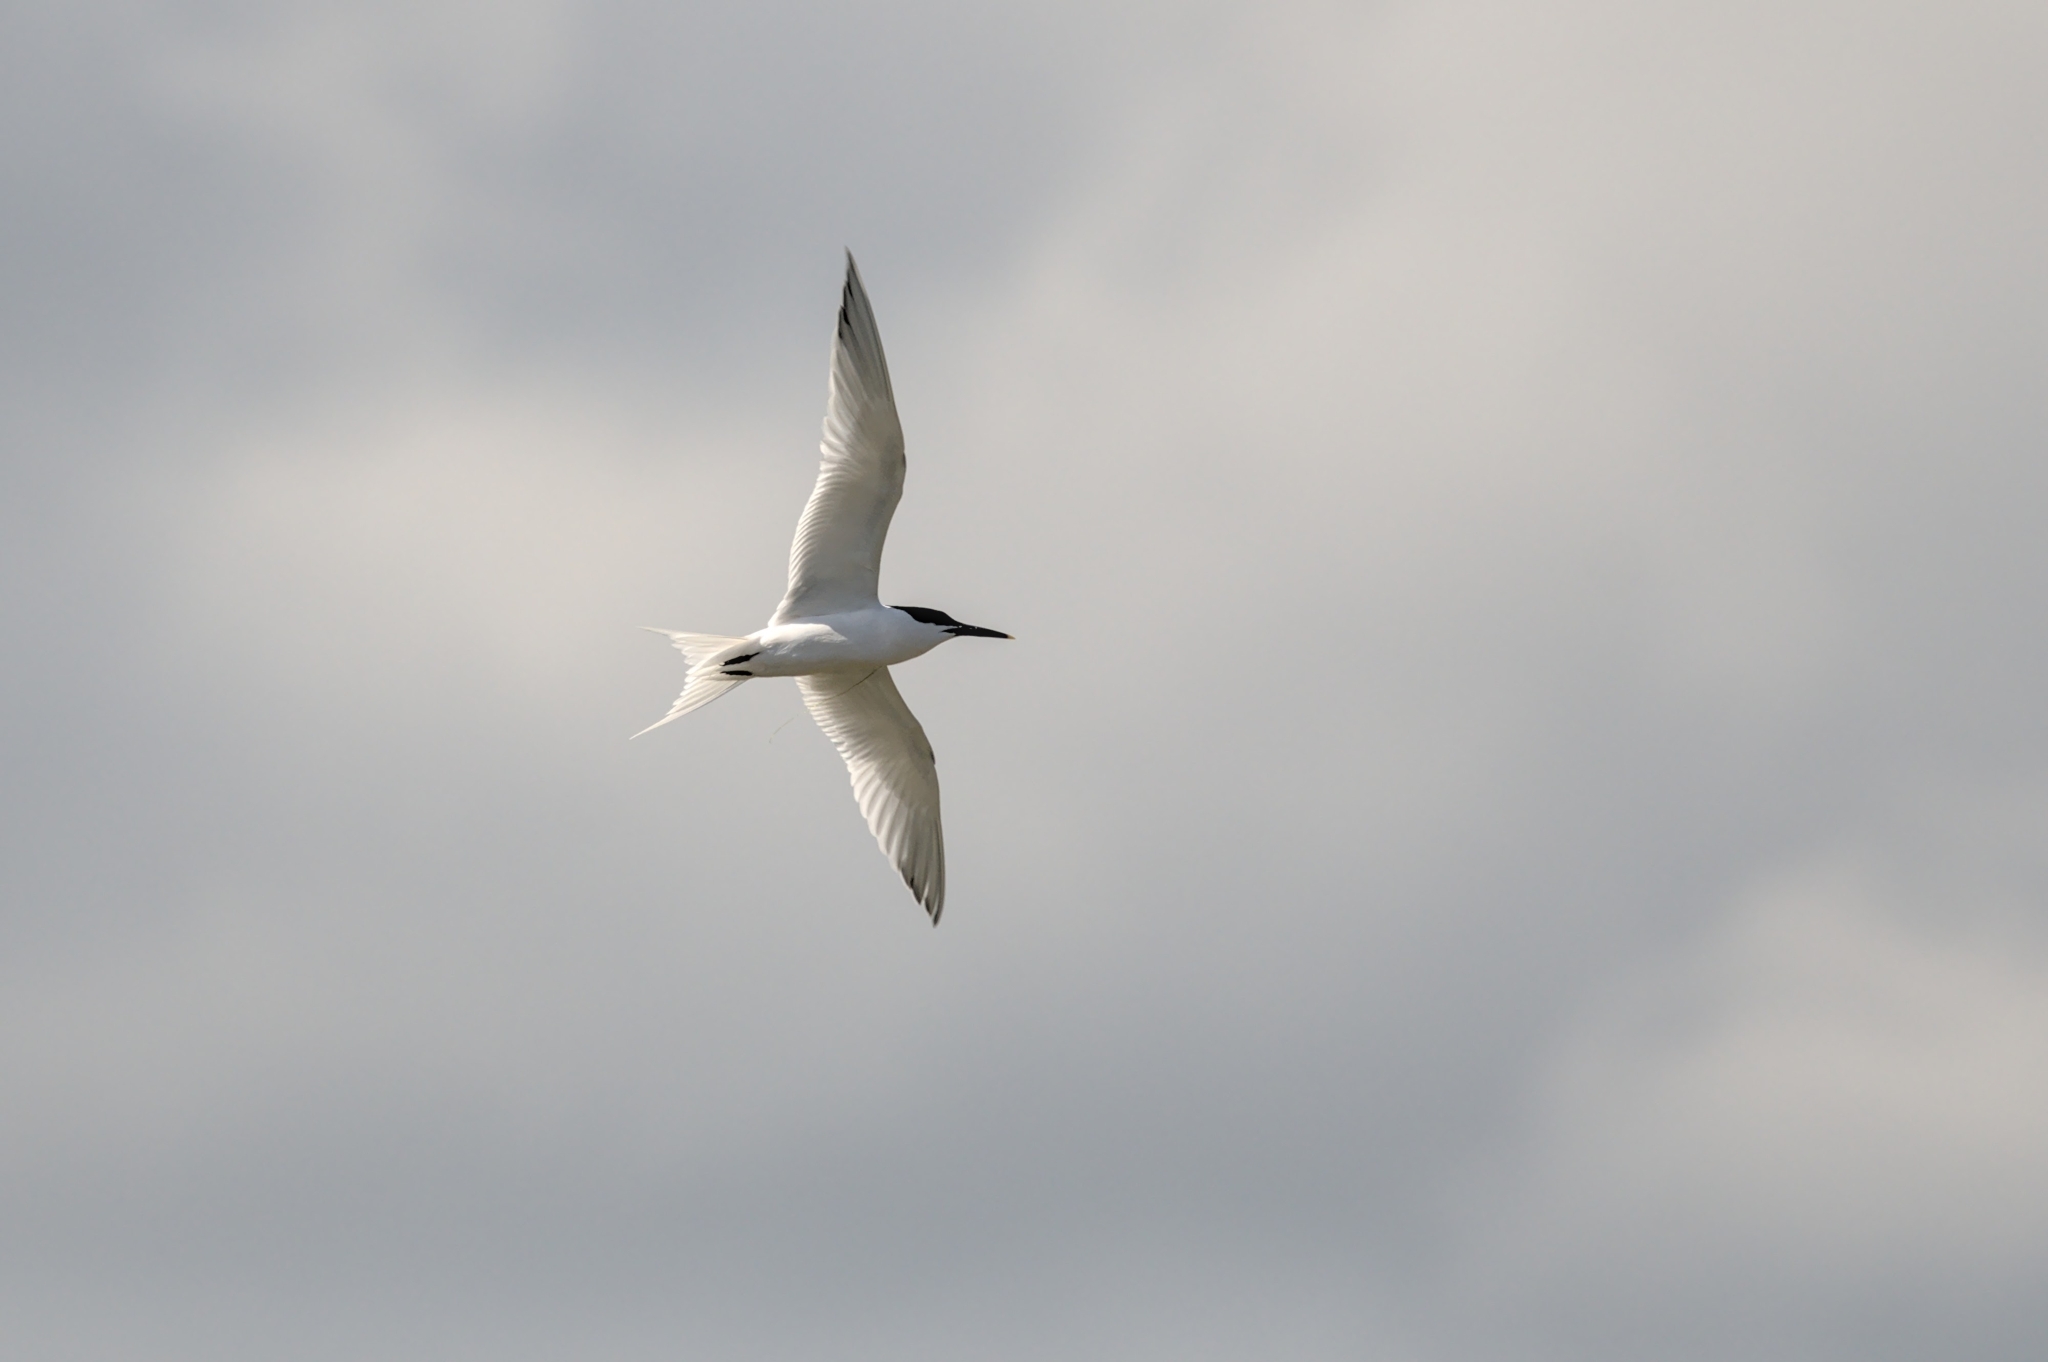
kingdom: Animalia
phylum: Chordata
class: Aves
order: Charadriiformes
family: Laridae
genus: Thalasseus
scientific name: Thalasseus sandvicensis
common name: Sandwich tern
